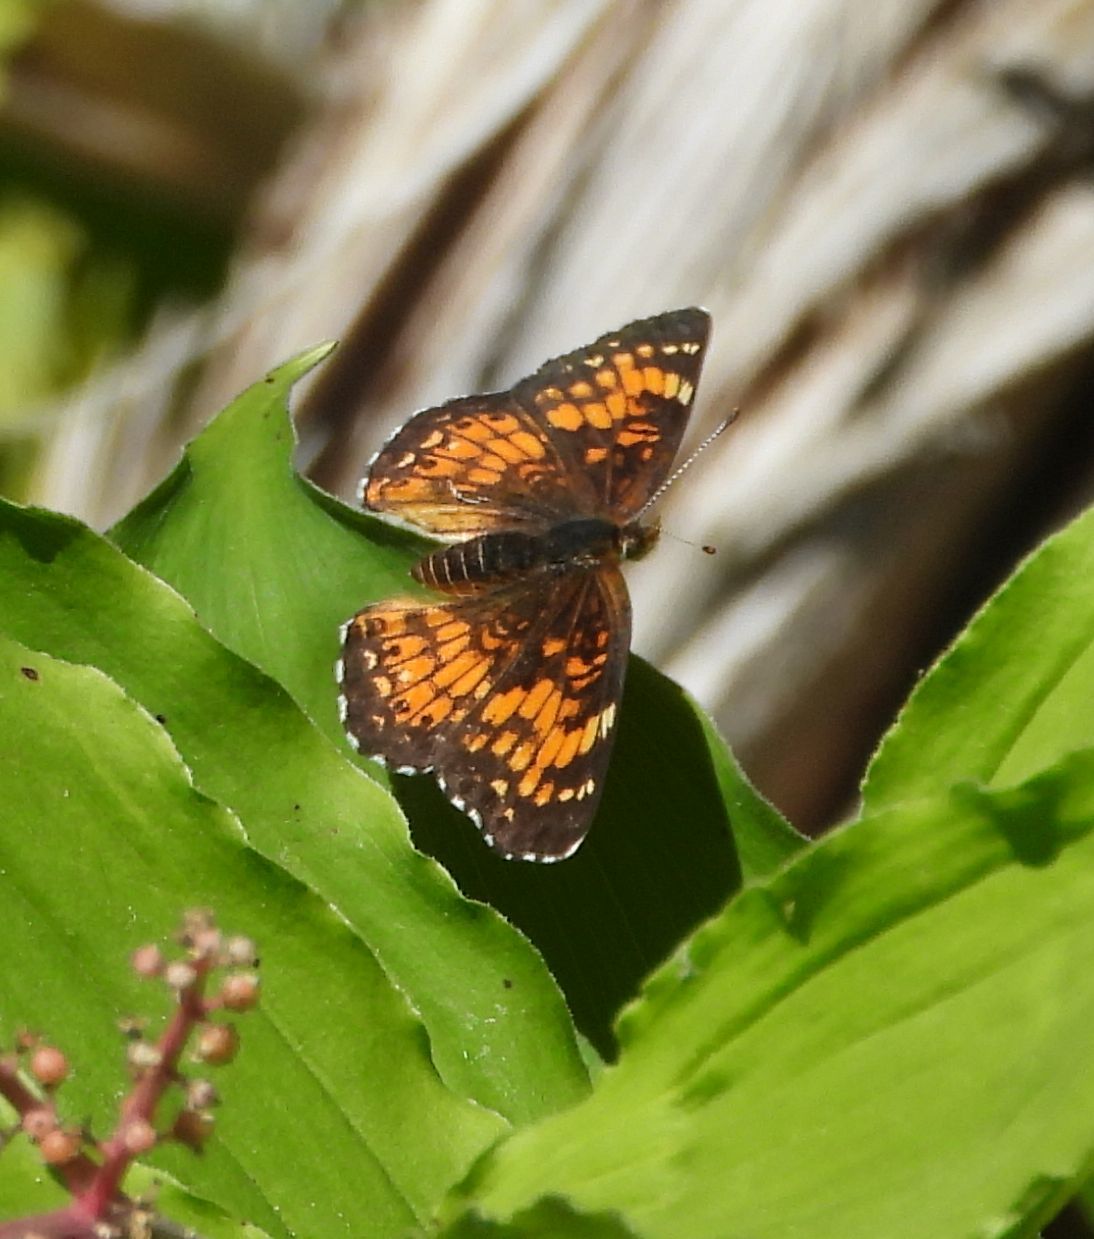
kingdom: Animalia
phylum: Arthropoda
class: Insecta
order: Lepidoptera
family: Nymphalidae
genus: Chlosyne
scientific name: Chlosyne harrisii
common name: Harris's checkerspot
